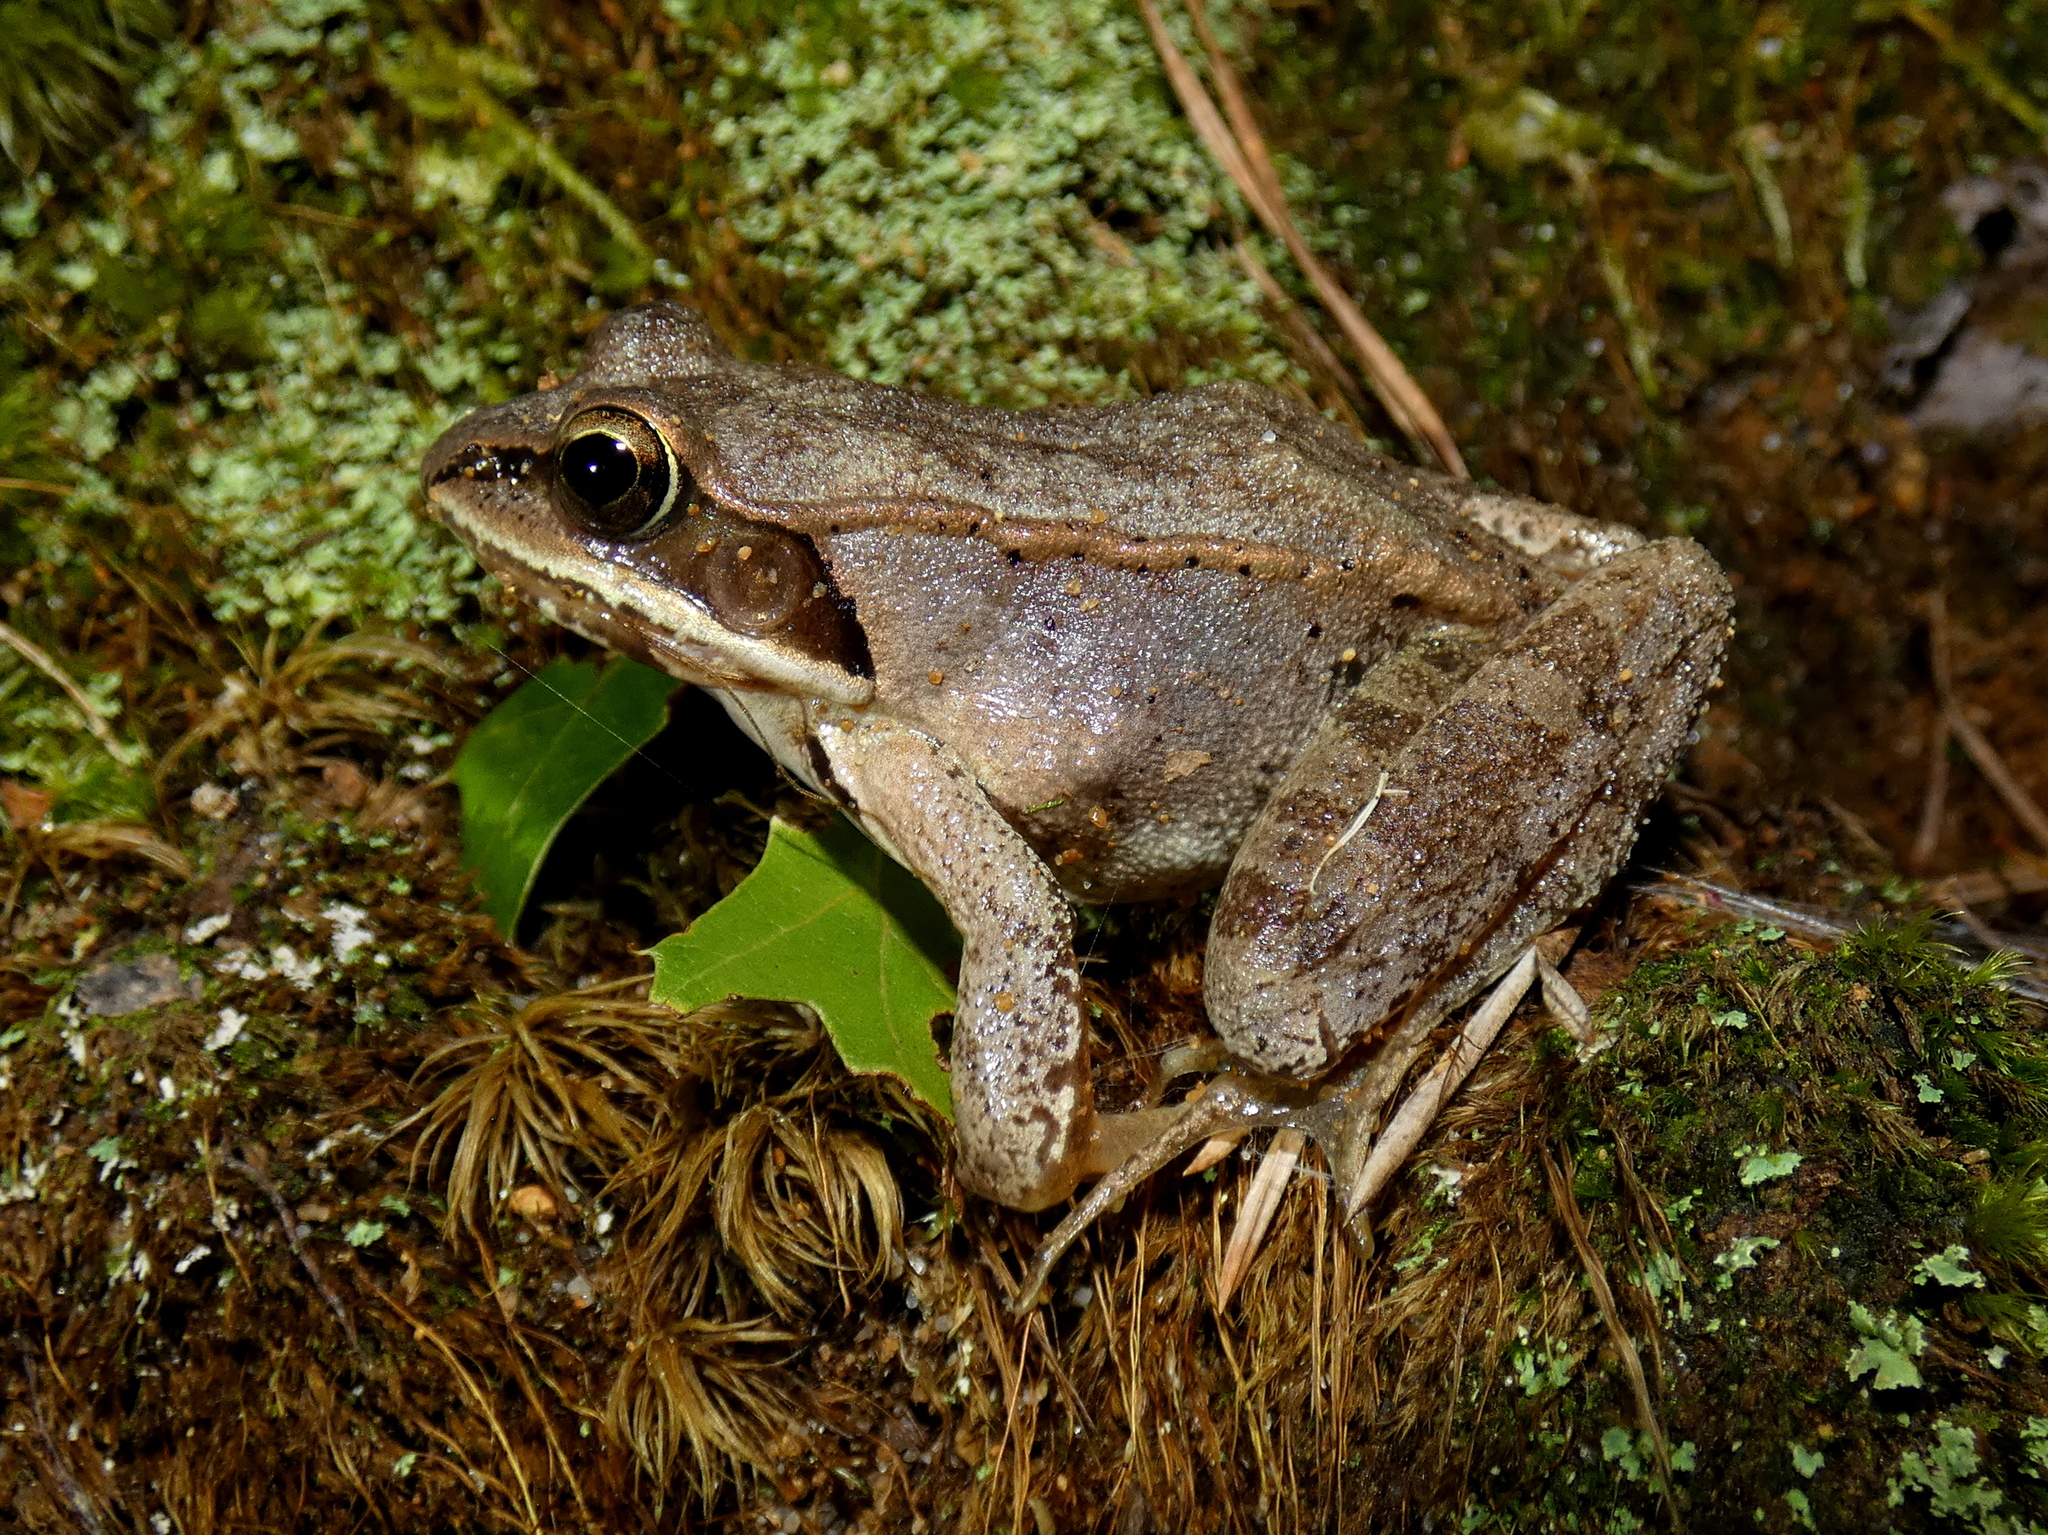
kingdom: Animalia
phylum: Chordata
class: Amphibia
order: Anura
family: Ranidae
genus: Lithobates
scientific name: Lithobates sylvaticus
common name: Wood frog
